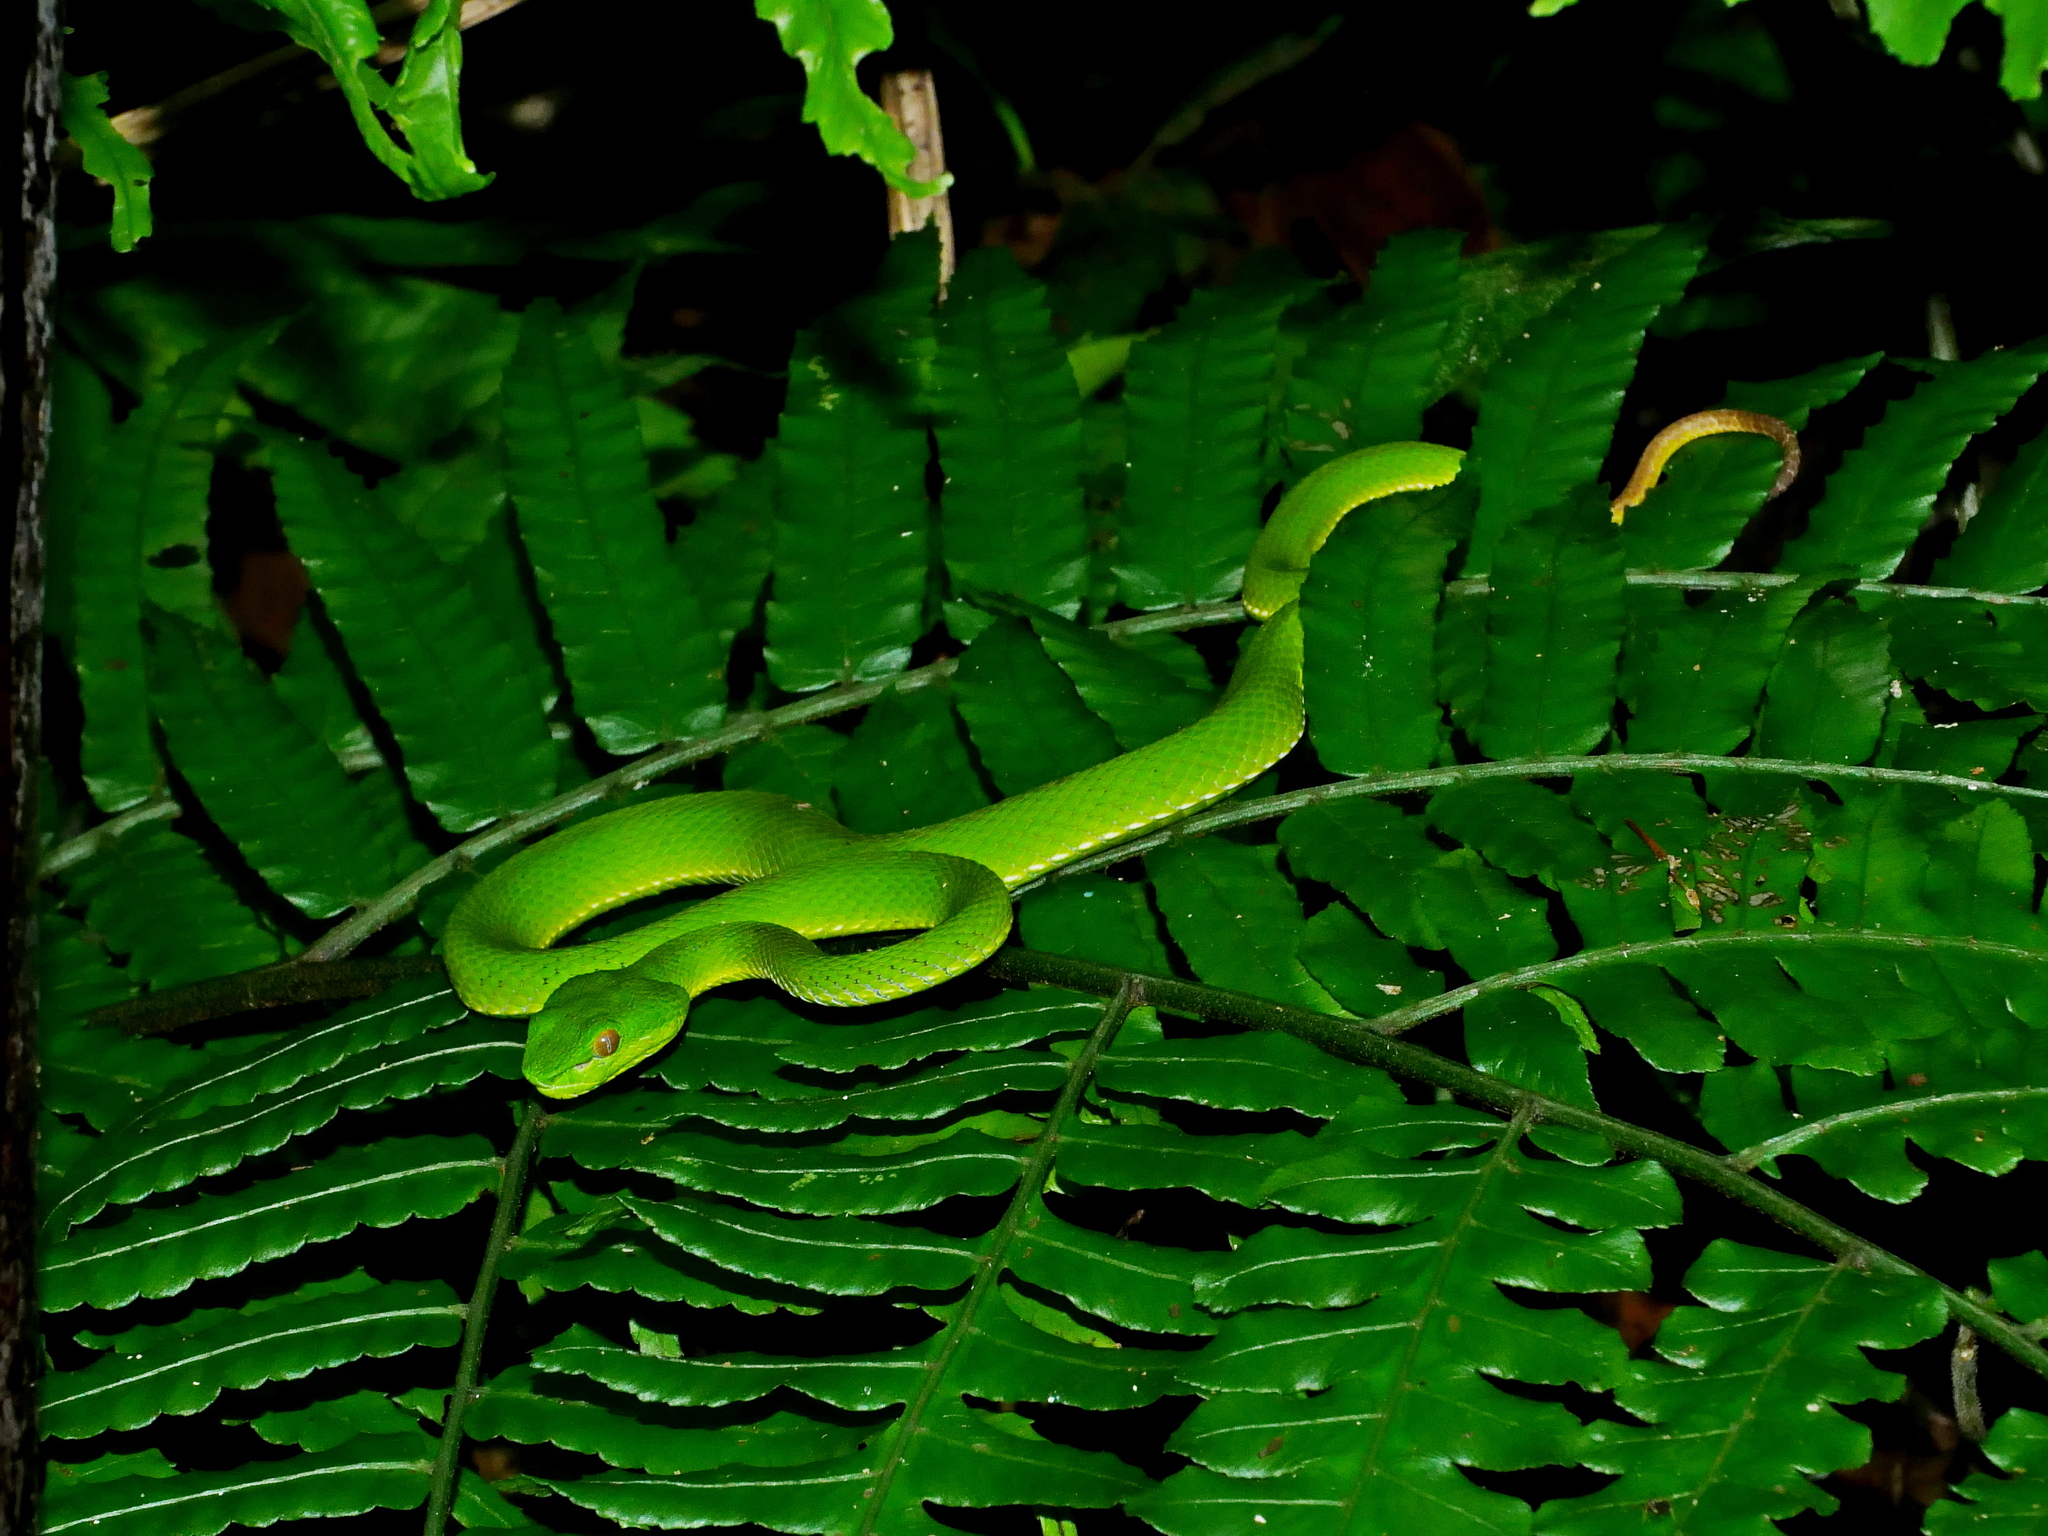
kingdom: Animalia
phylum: Chordata
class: Squamata
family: Viperidae
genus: Trimeresurus
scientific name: Trimeresurus stejnegeri
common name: Chen’s bamboo pit viper
